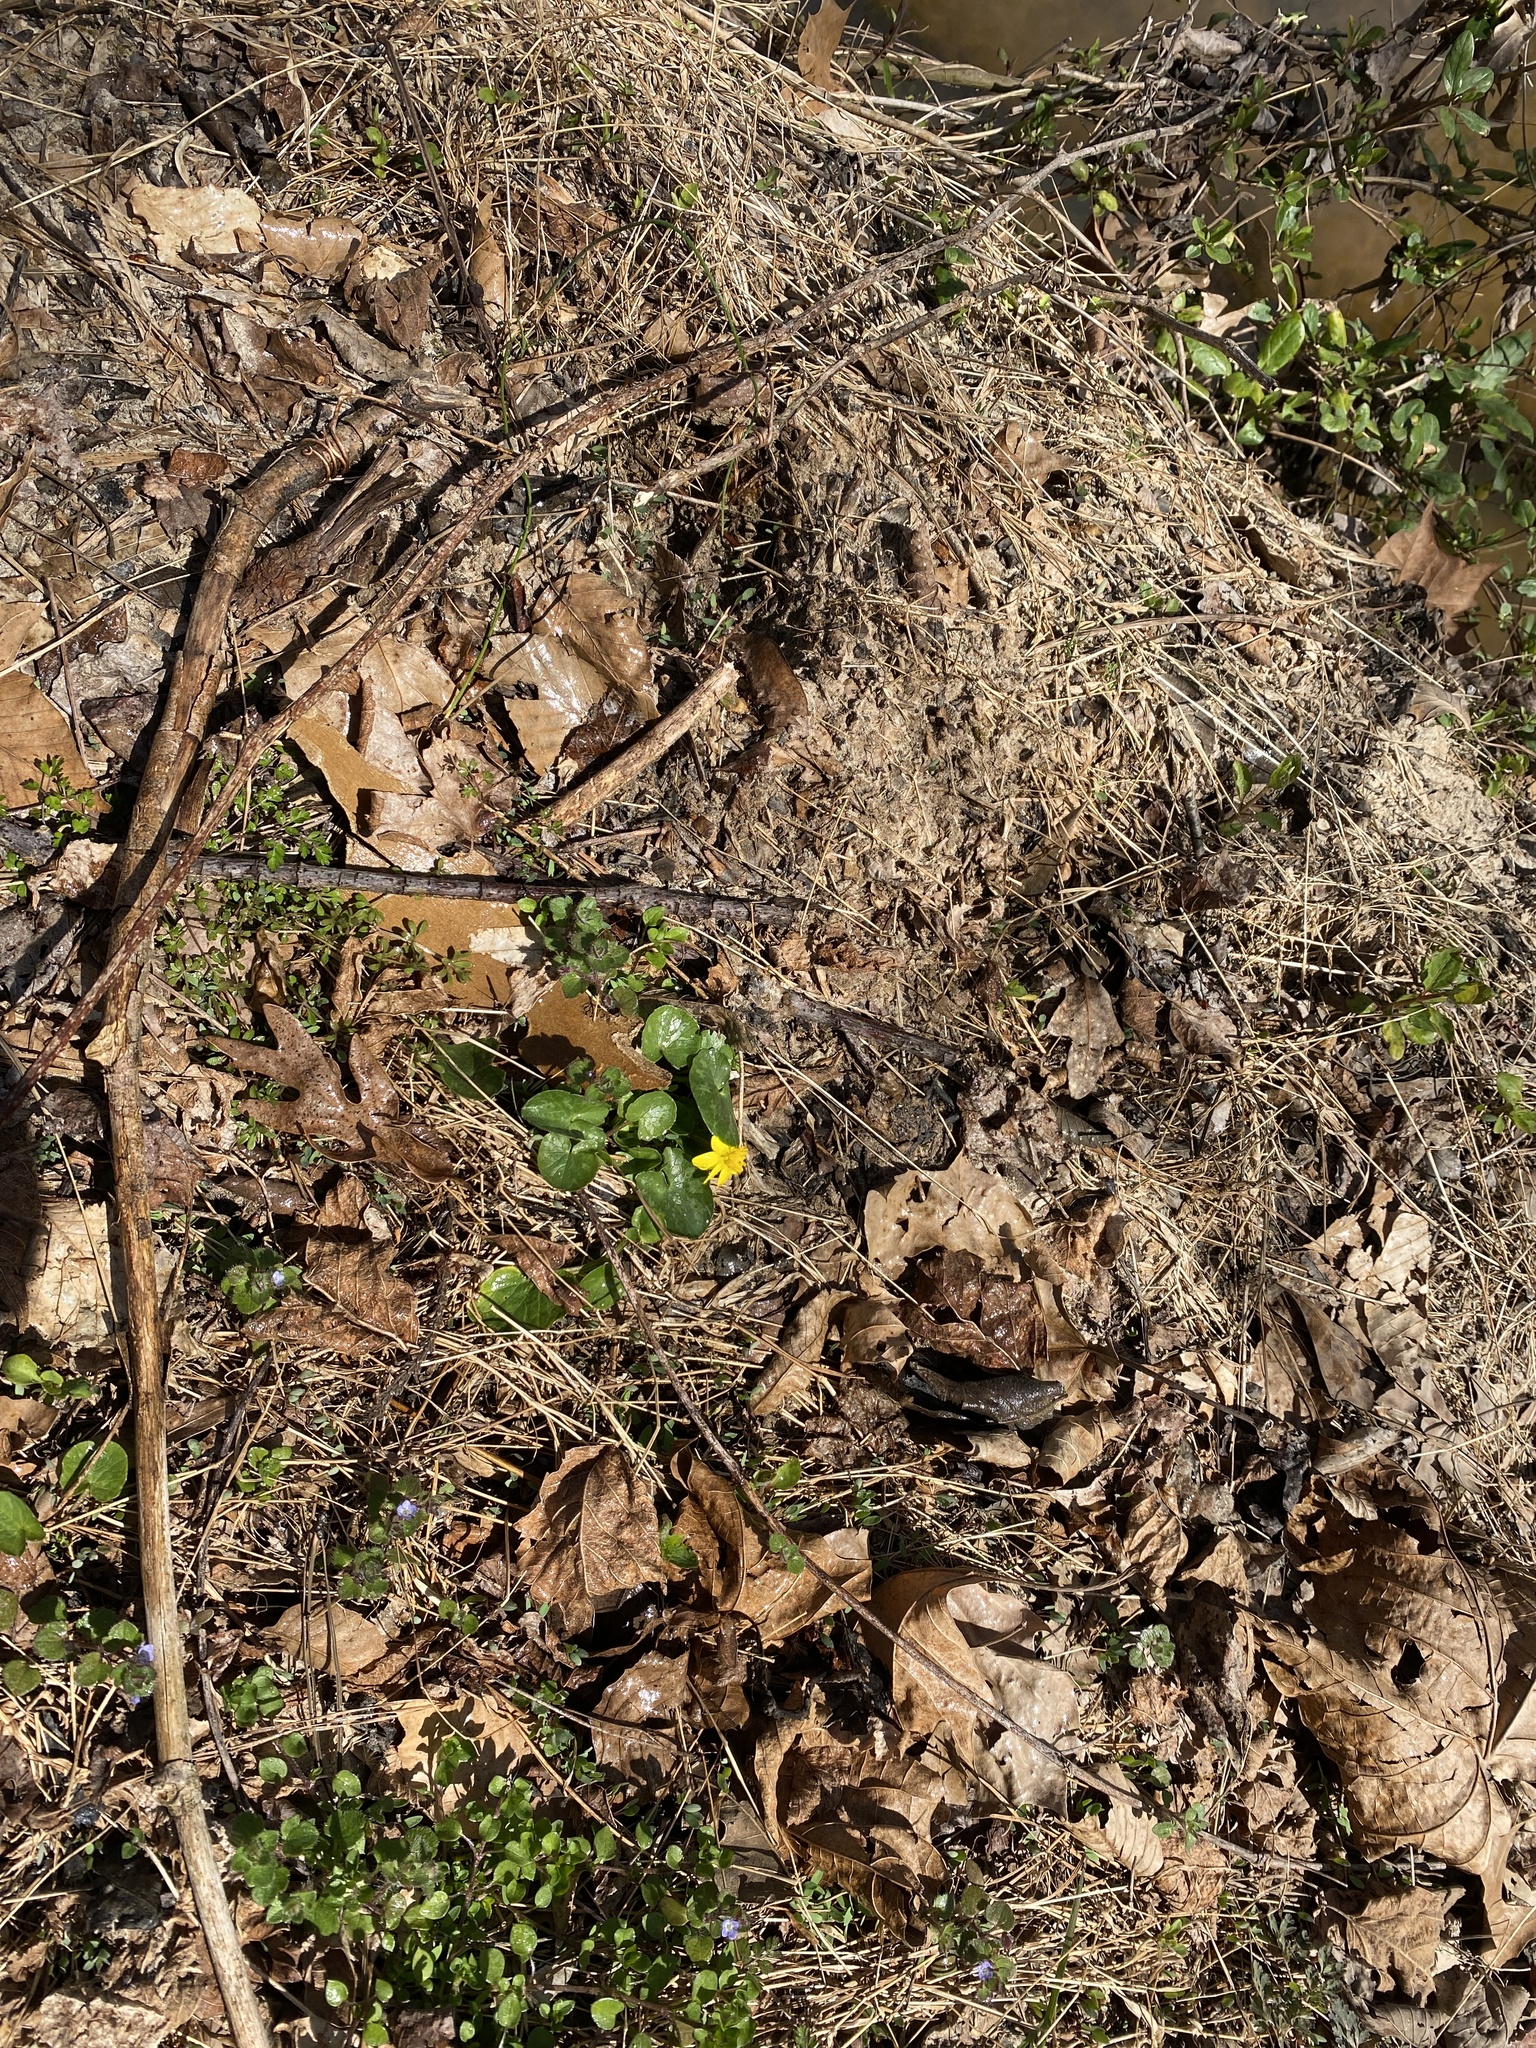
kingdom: Plantae
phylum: Tracheophyta
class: Magnoliopsida
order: Ranunculales
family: Ranunculaceae
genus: Ficaria
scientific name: Ficaria verna
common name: Lesser celandine
